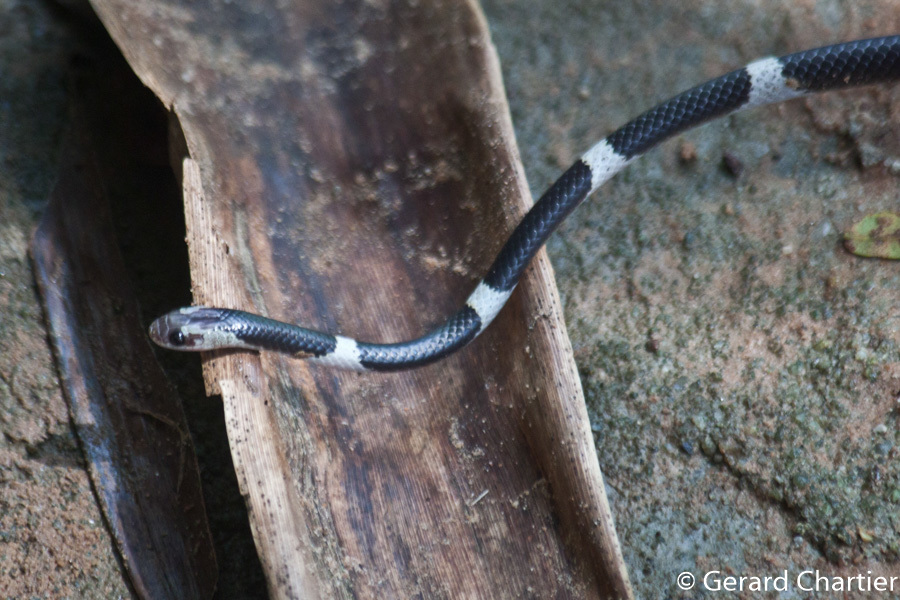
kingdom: Animalia
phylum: Chordata
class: Squamata
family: Colubridae
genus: Lycodon
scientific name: Lycodon davisonii
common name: Blanford's bridal snake
